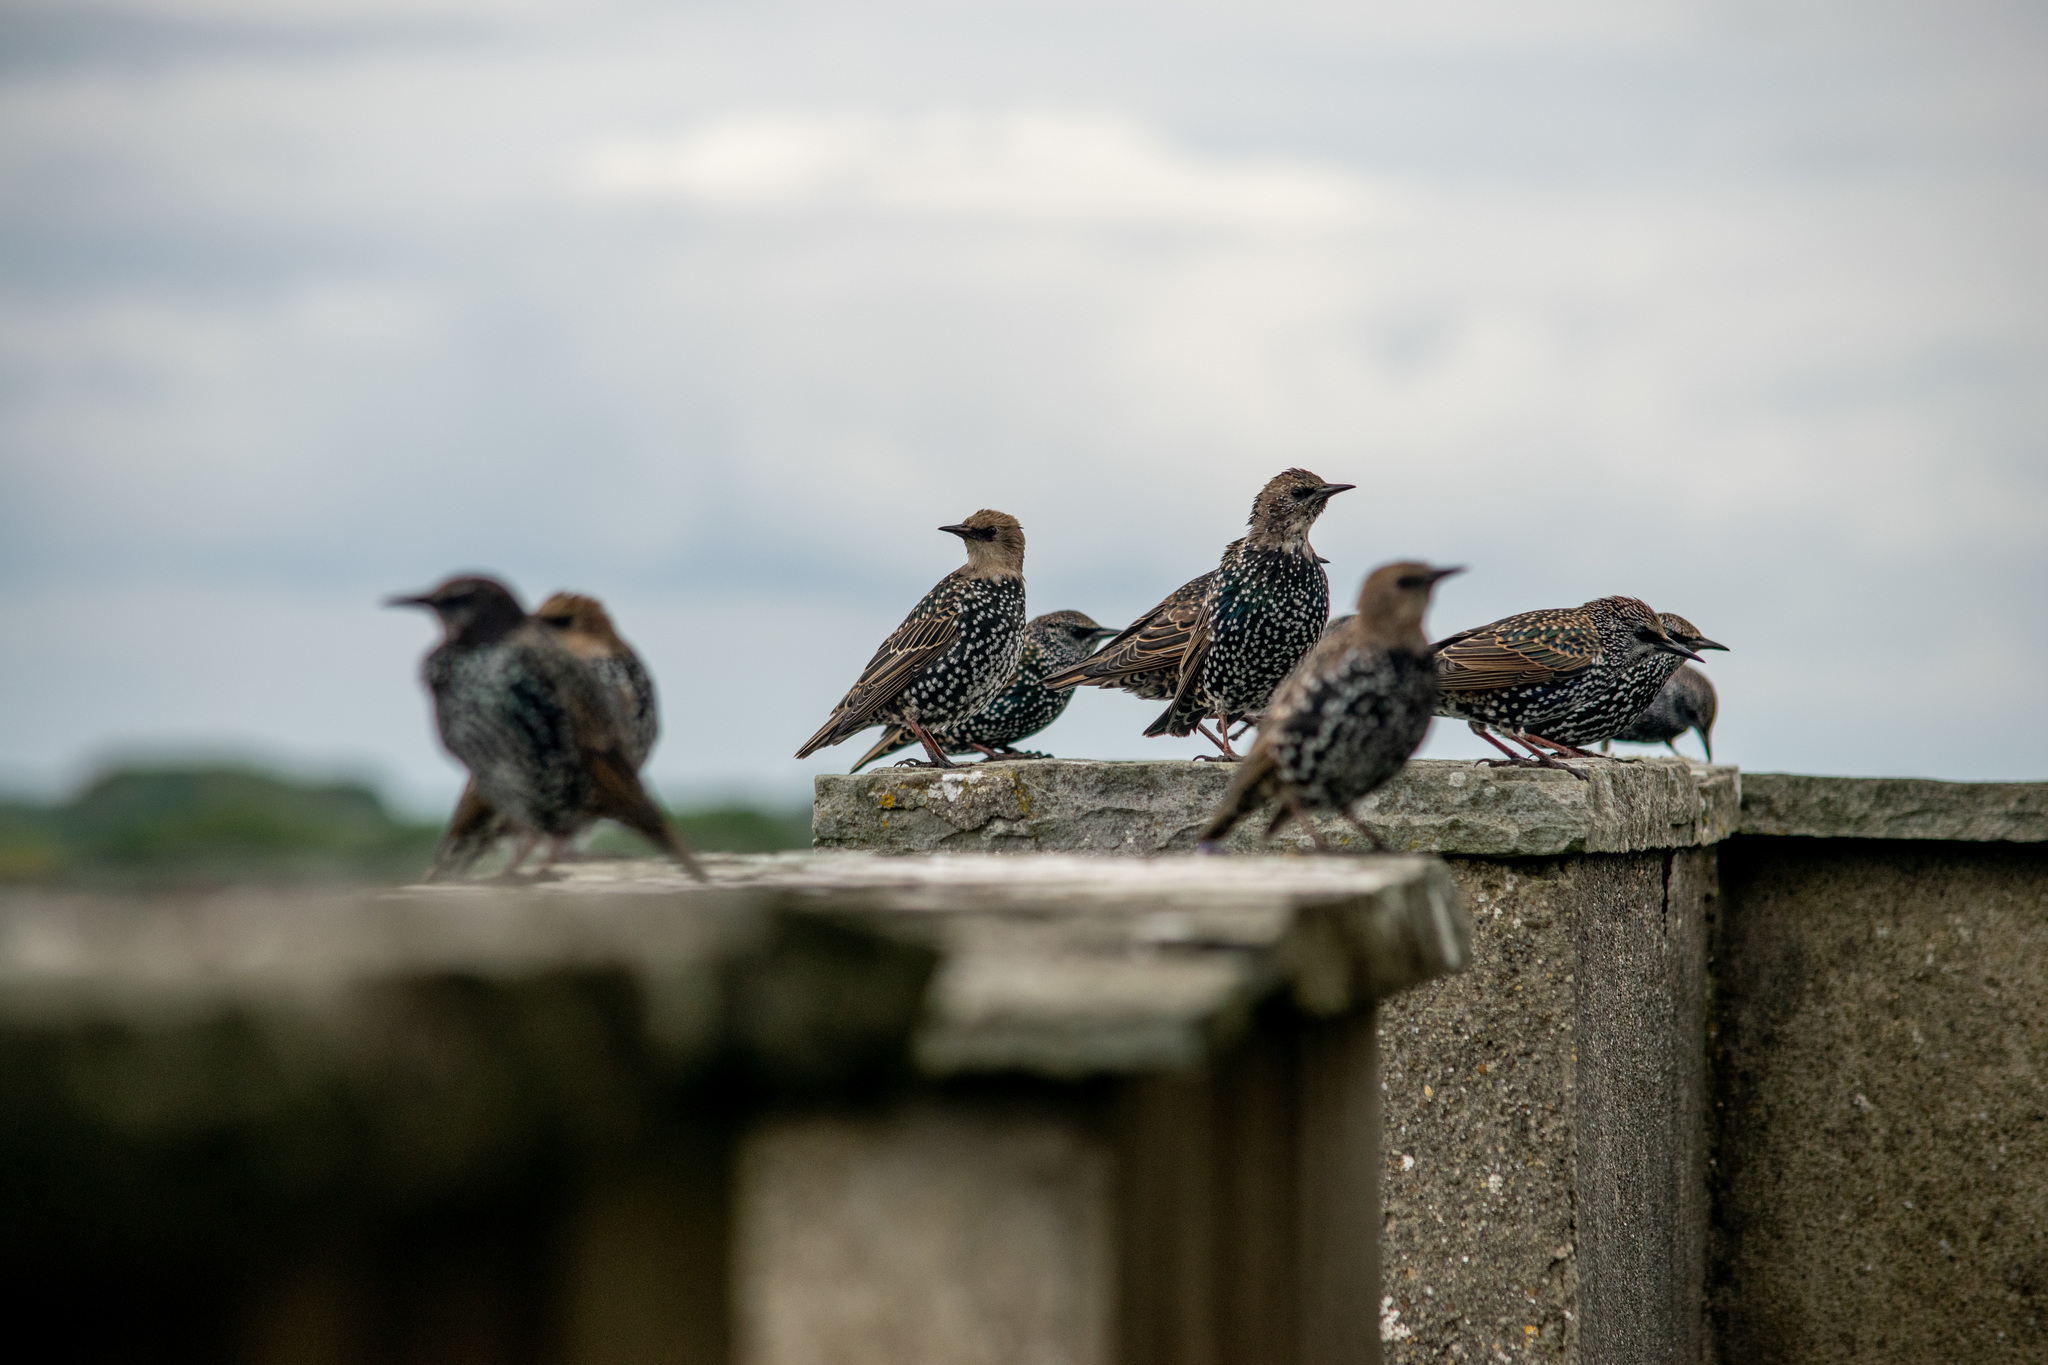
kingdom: Animalia
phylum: Chordata
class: Aves
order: Passeriformes
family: Sturnidae
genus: Sturnus
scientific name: Sturnus vulgaris
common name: Common starling
